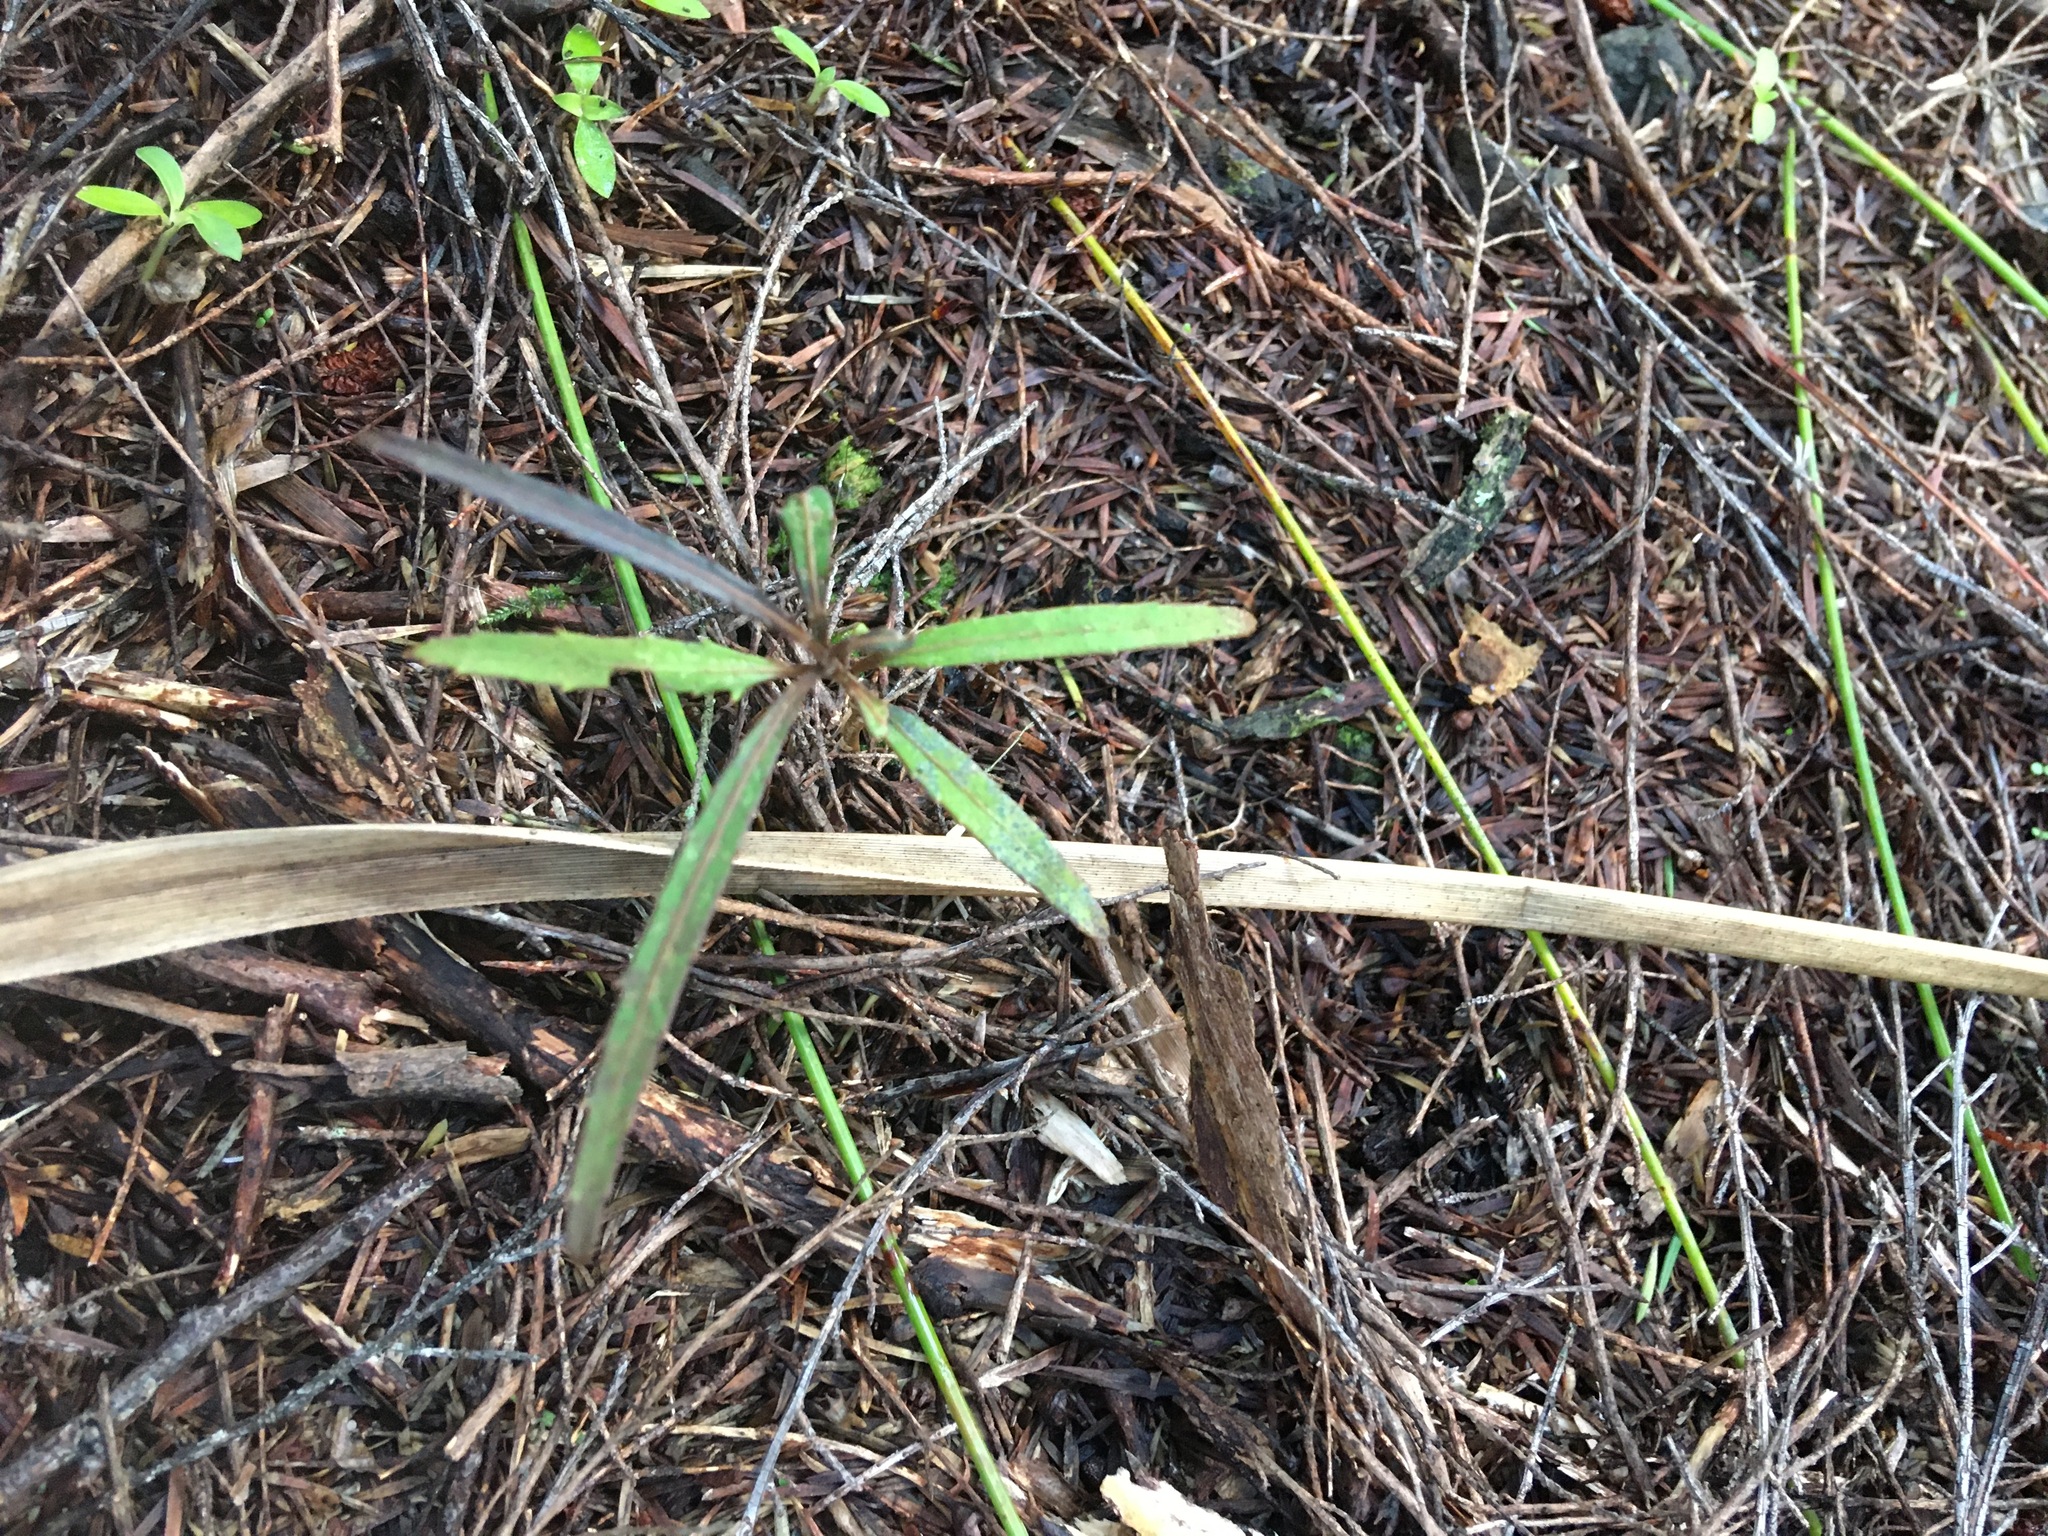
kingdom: Plantae
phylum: Tracheophyta
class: Magnoliopsida
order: Apiales
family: Araliaceae
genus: Pseudopanax
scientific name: Pseudopanax crassifolius
